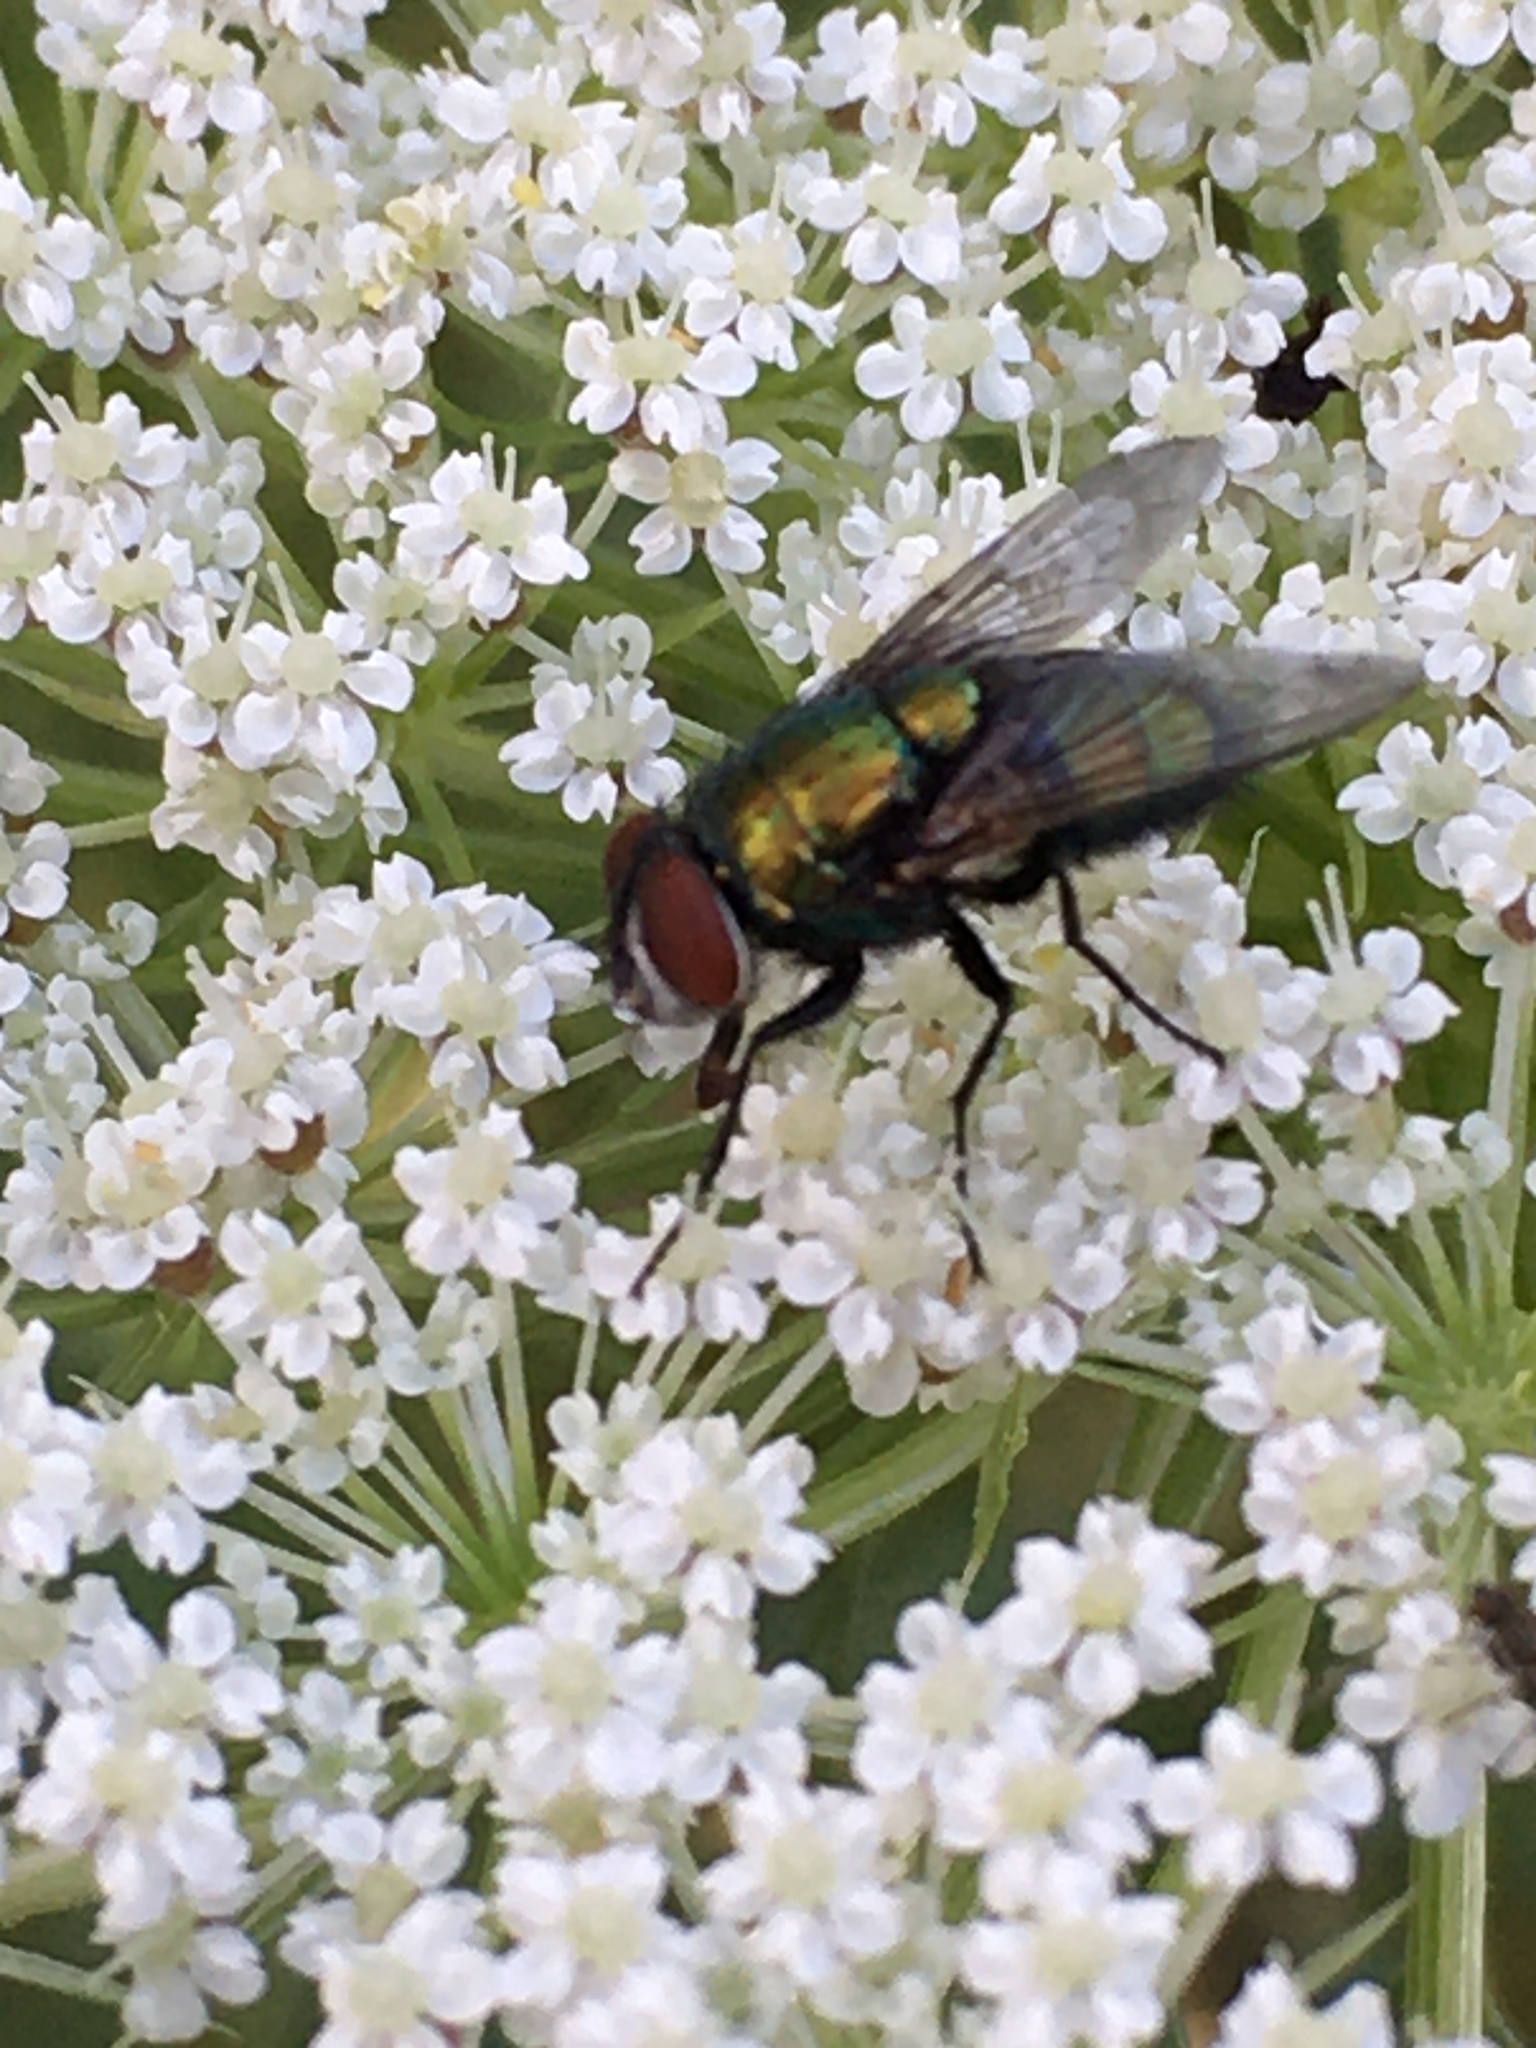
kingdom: Animalia
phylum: Arthropoda
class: Insecta
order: Diptera
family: Calliphoridae
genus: Lucilia
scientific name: Lucilia sericata
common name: Blow fly
